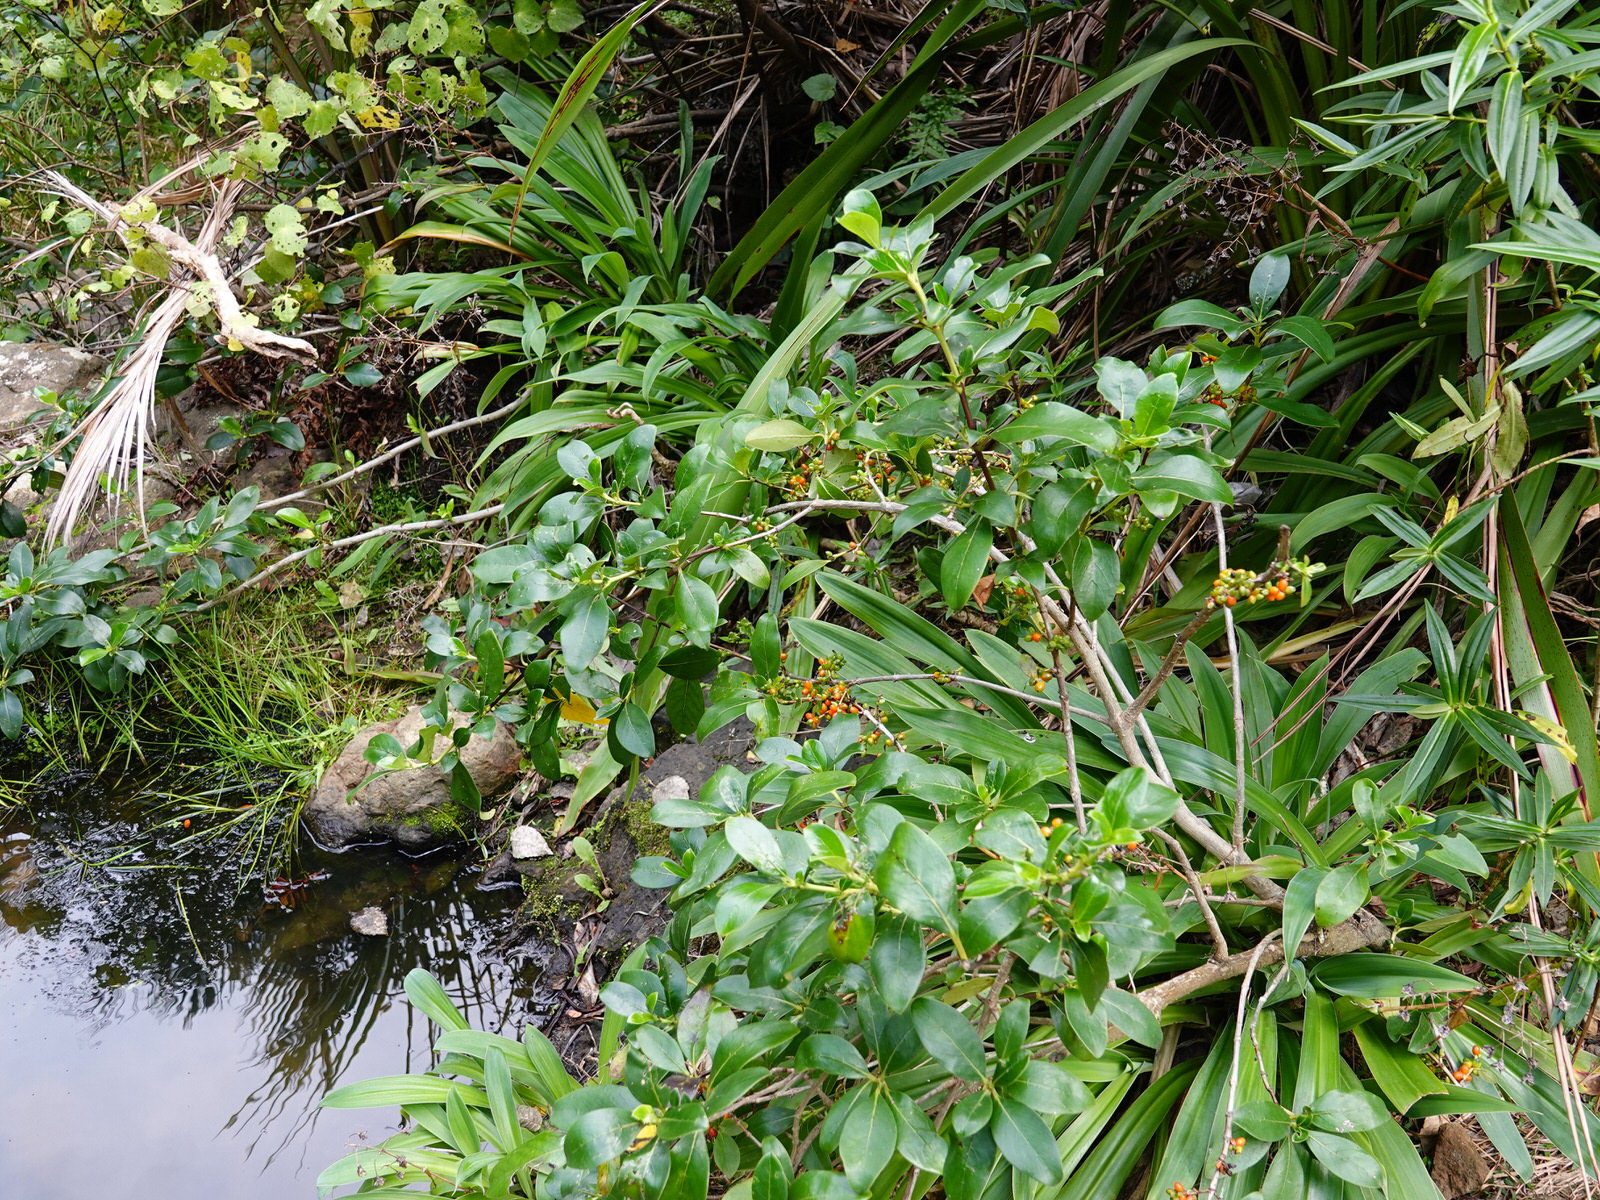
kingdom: Plantae
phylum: Tracheophyta
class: Magnoliopsida
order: Gentianales
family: Rubiaceae
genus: Coprosma
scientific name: Coprosma robusta
